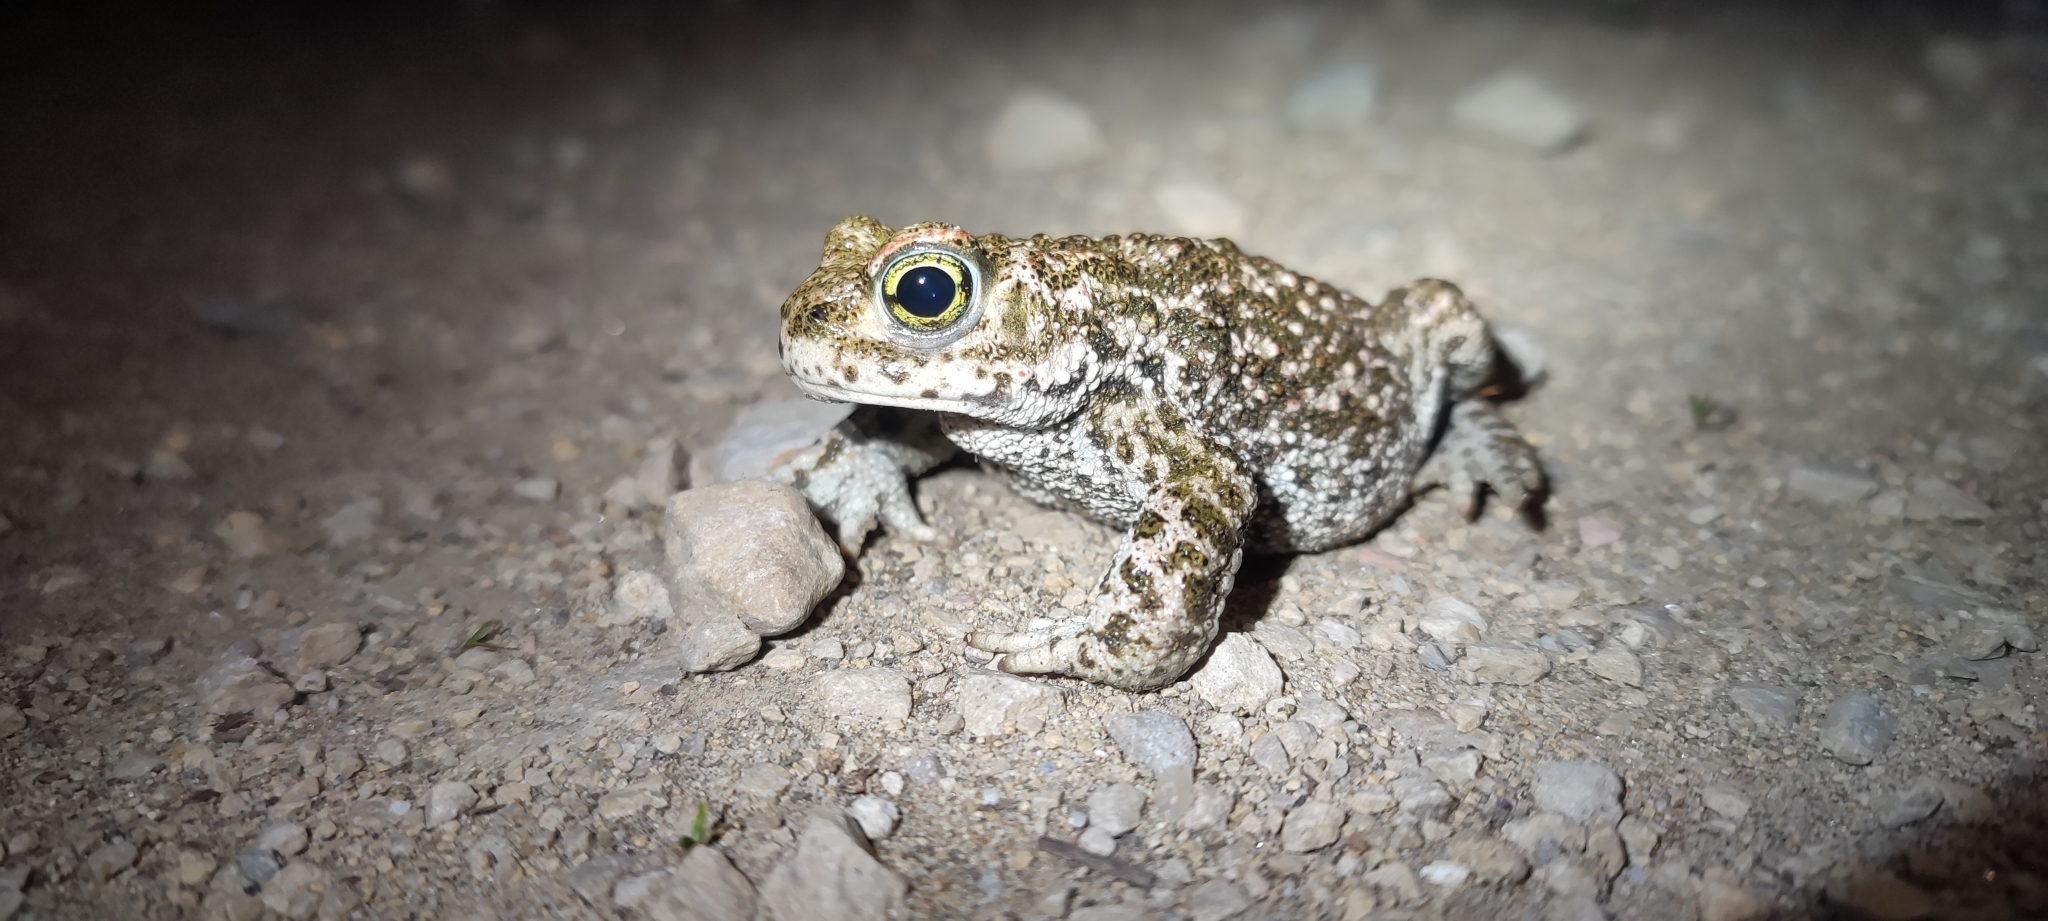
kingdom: Animalia
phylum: Chordata
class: Amphibia
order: Anura
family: Bufonidae
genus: Epidalea
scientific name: Epidalea calamita
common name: Natterjack toad
